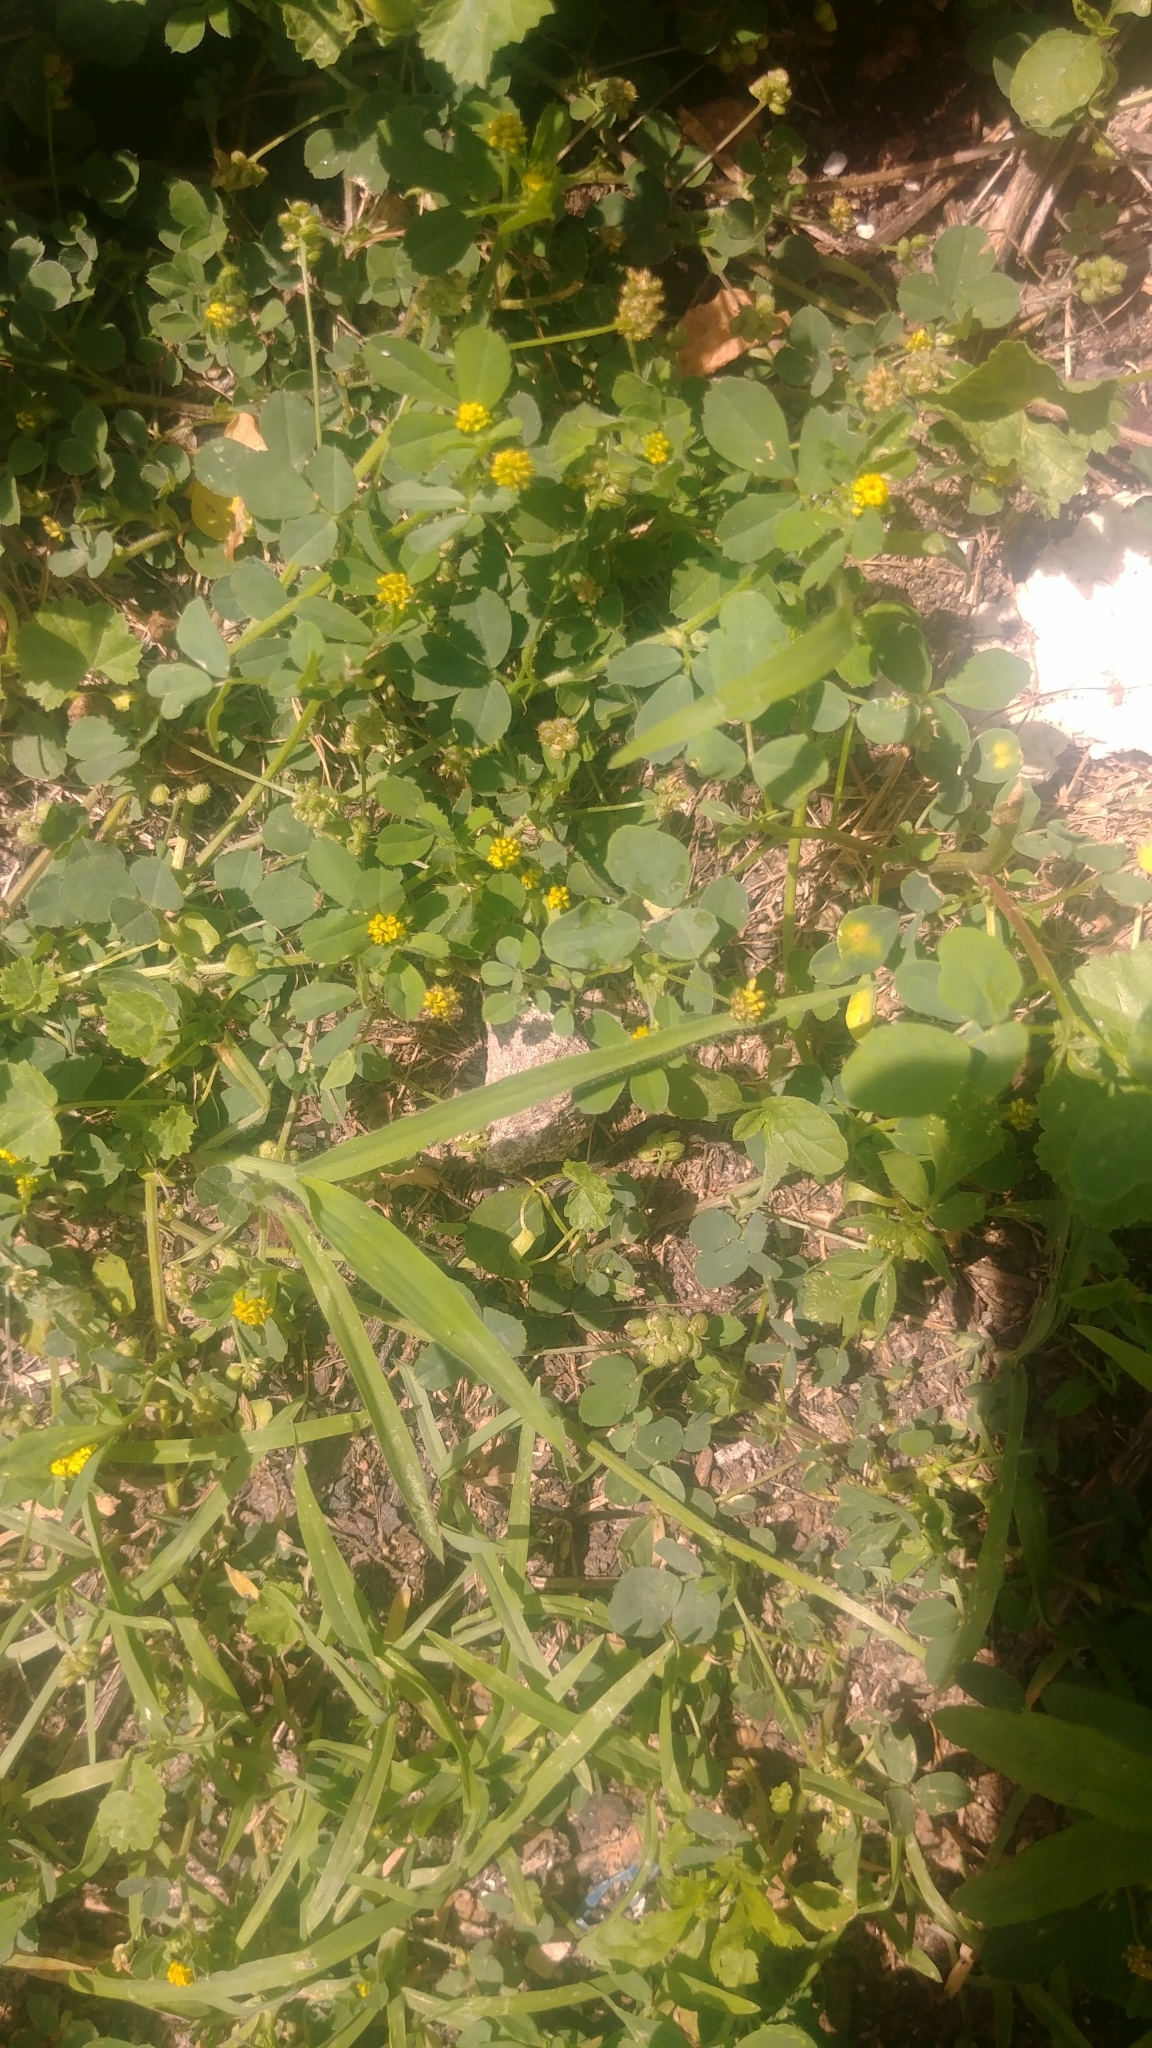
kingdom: Plantae
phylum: Tracheophyta
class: Magnoliopsida
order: Fabales
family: Fabaceae
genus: Medicago
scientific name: Medicago lupulina
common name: Black medick
